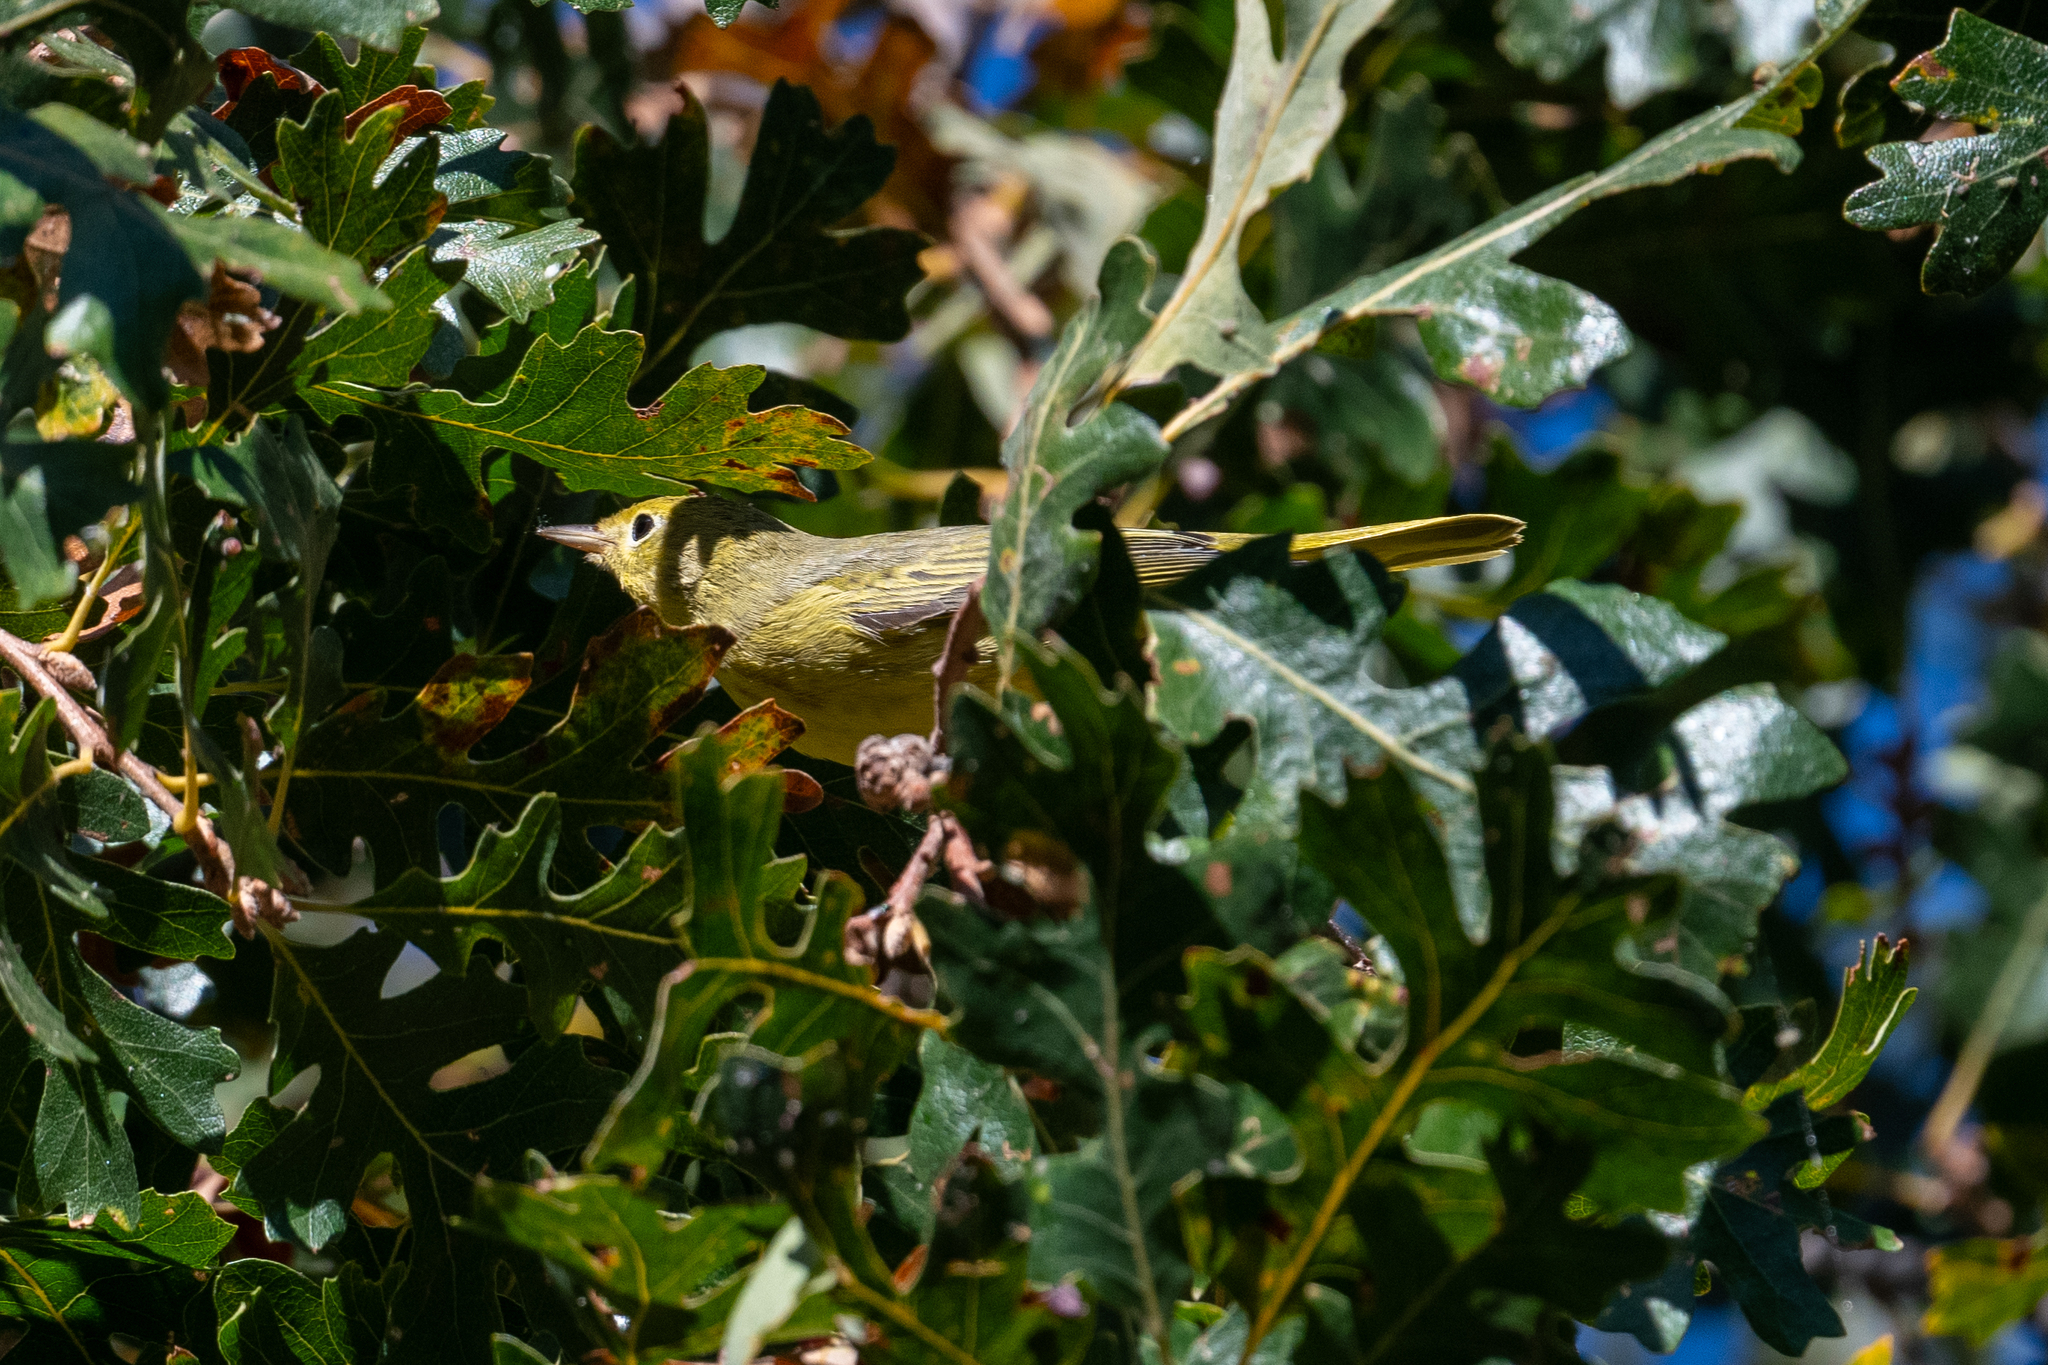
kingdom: Animalia
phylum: Chordata
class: Aves
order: Passeriformes
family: Parulidae
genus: Setophaga
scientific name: Setophaga petechia
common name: Yellow warbler
